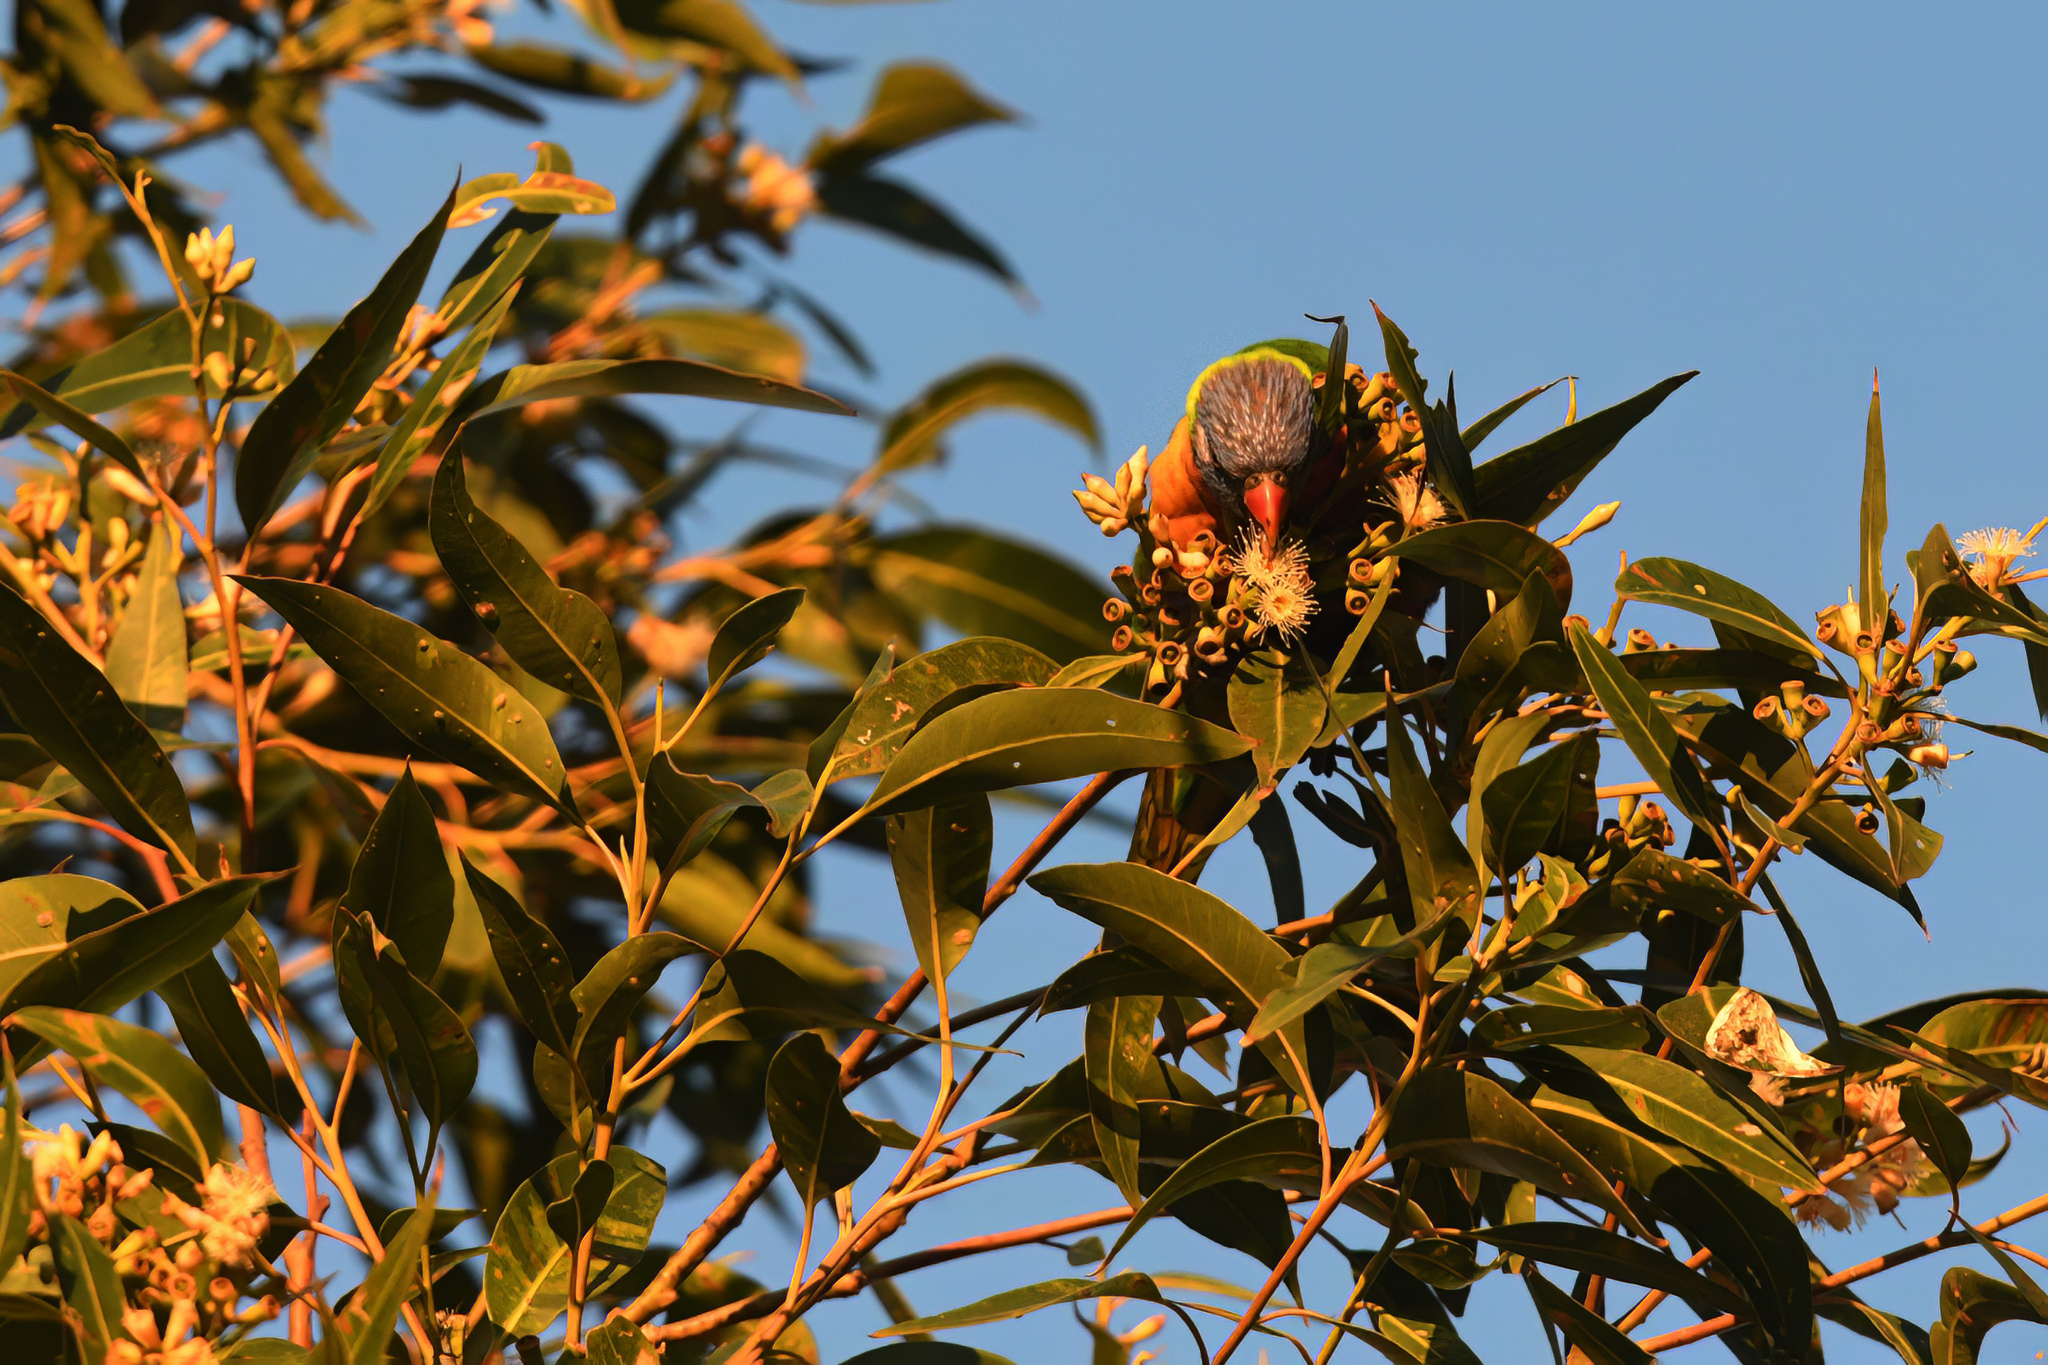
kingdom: Animalia
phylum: Chordata
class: Aves
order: Psittaciformes
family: Psittacidae
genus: Trichoglossus
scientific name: Trichoglossus haematodus
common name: Coconut lorikeet
